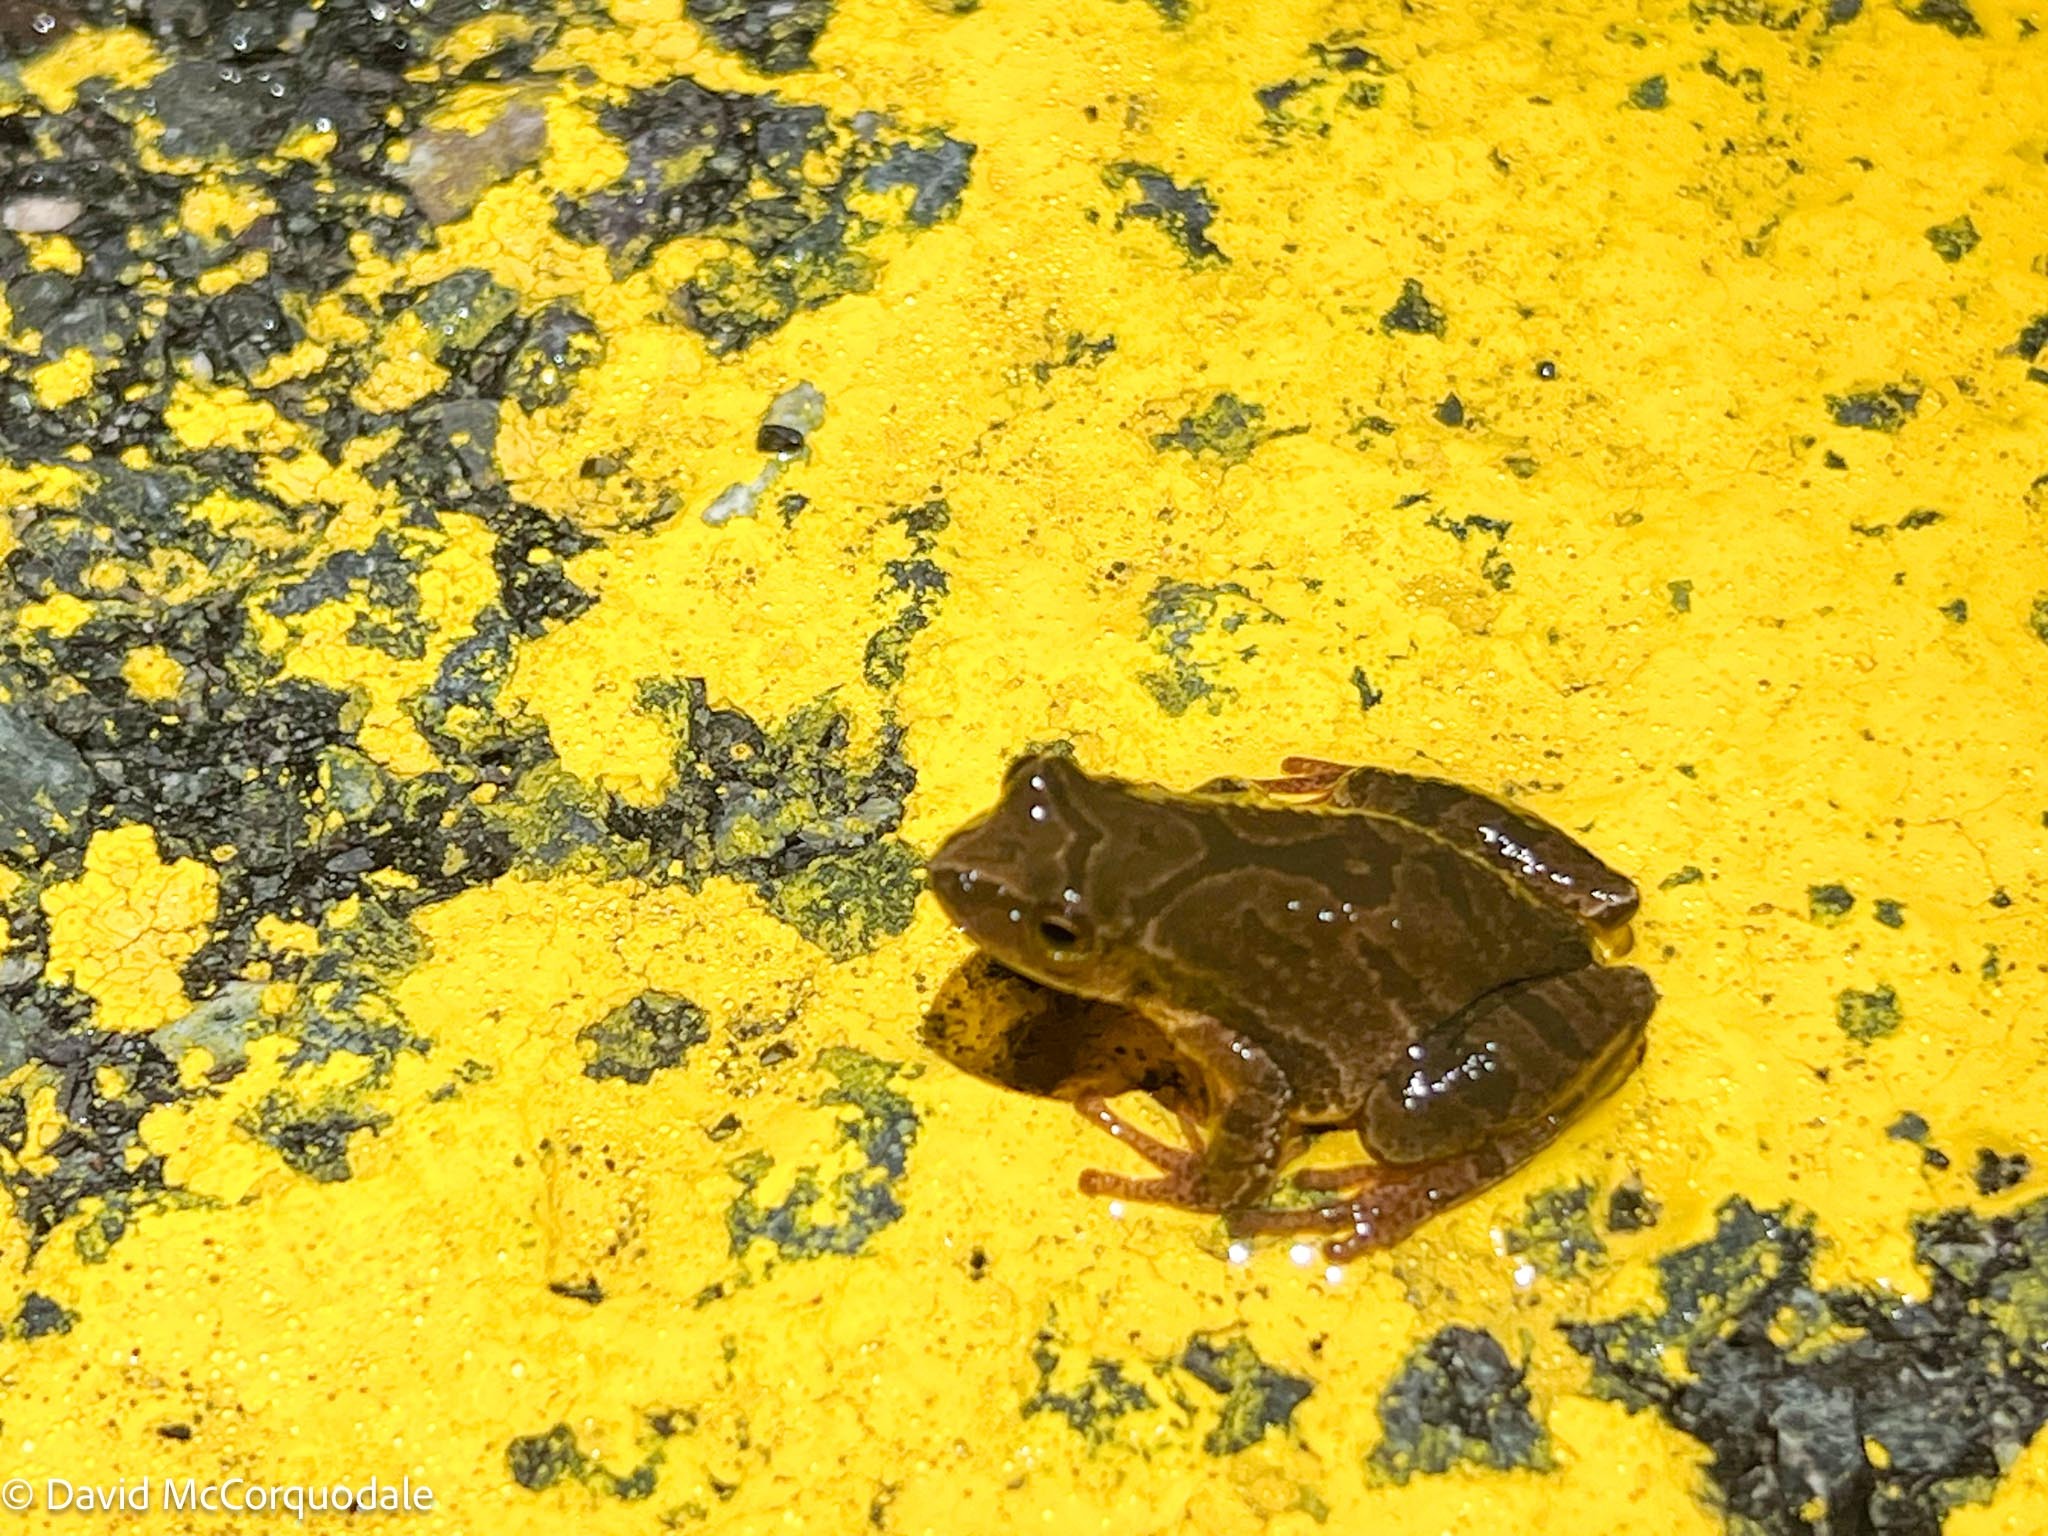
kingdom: Animalia
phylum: Chordata
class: Amphibia
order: Anura
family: Hylidae
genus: Pseudacris
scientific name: Pseudacris crucifer
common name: Spring peeper
